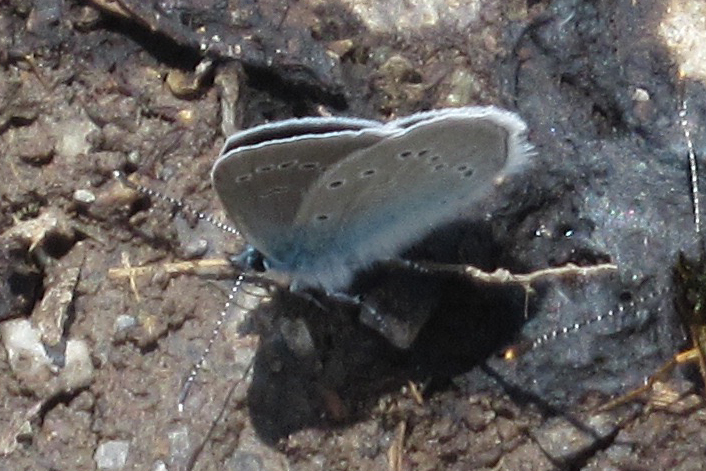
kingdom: Animalia
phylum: Arthropoda
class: Insecta
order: Lepidoptera
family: Lycaenidae
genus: Cyaniris
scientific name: Cyaniris semiargus
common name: Mazarine blue
